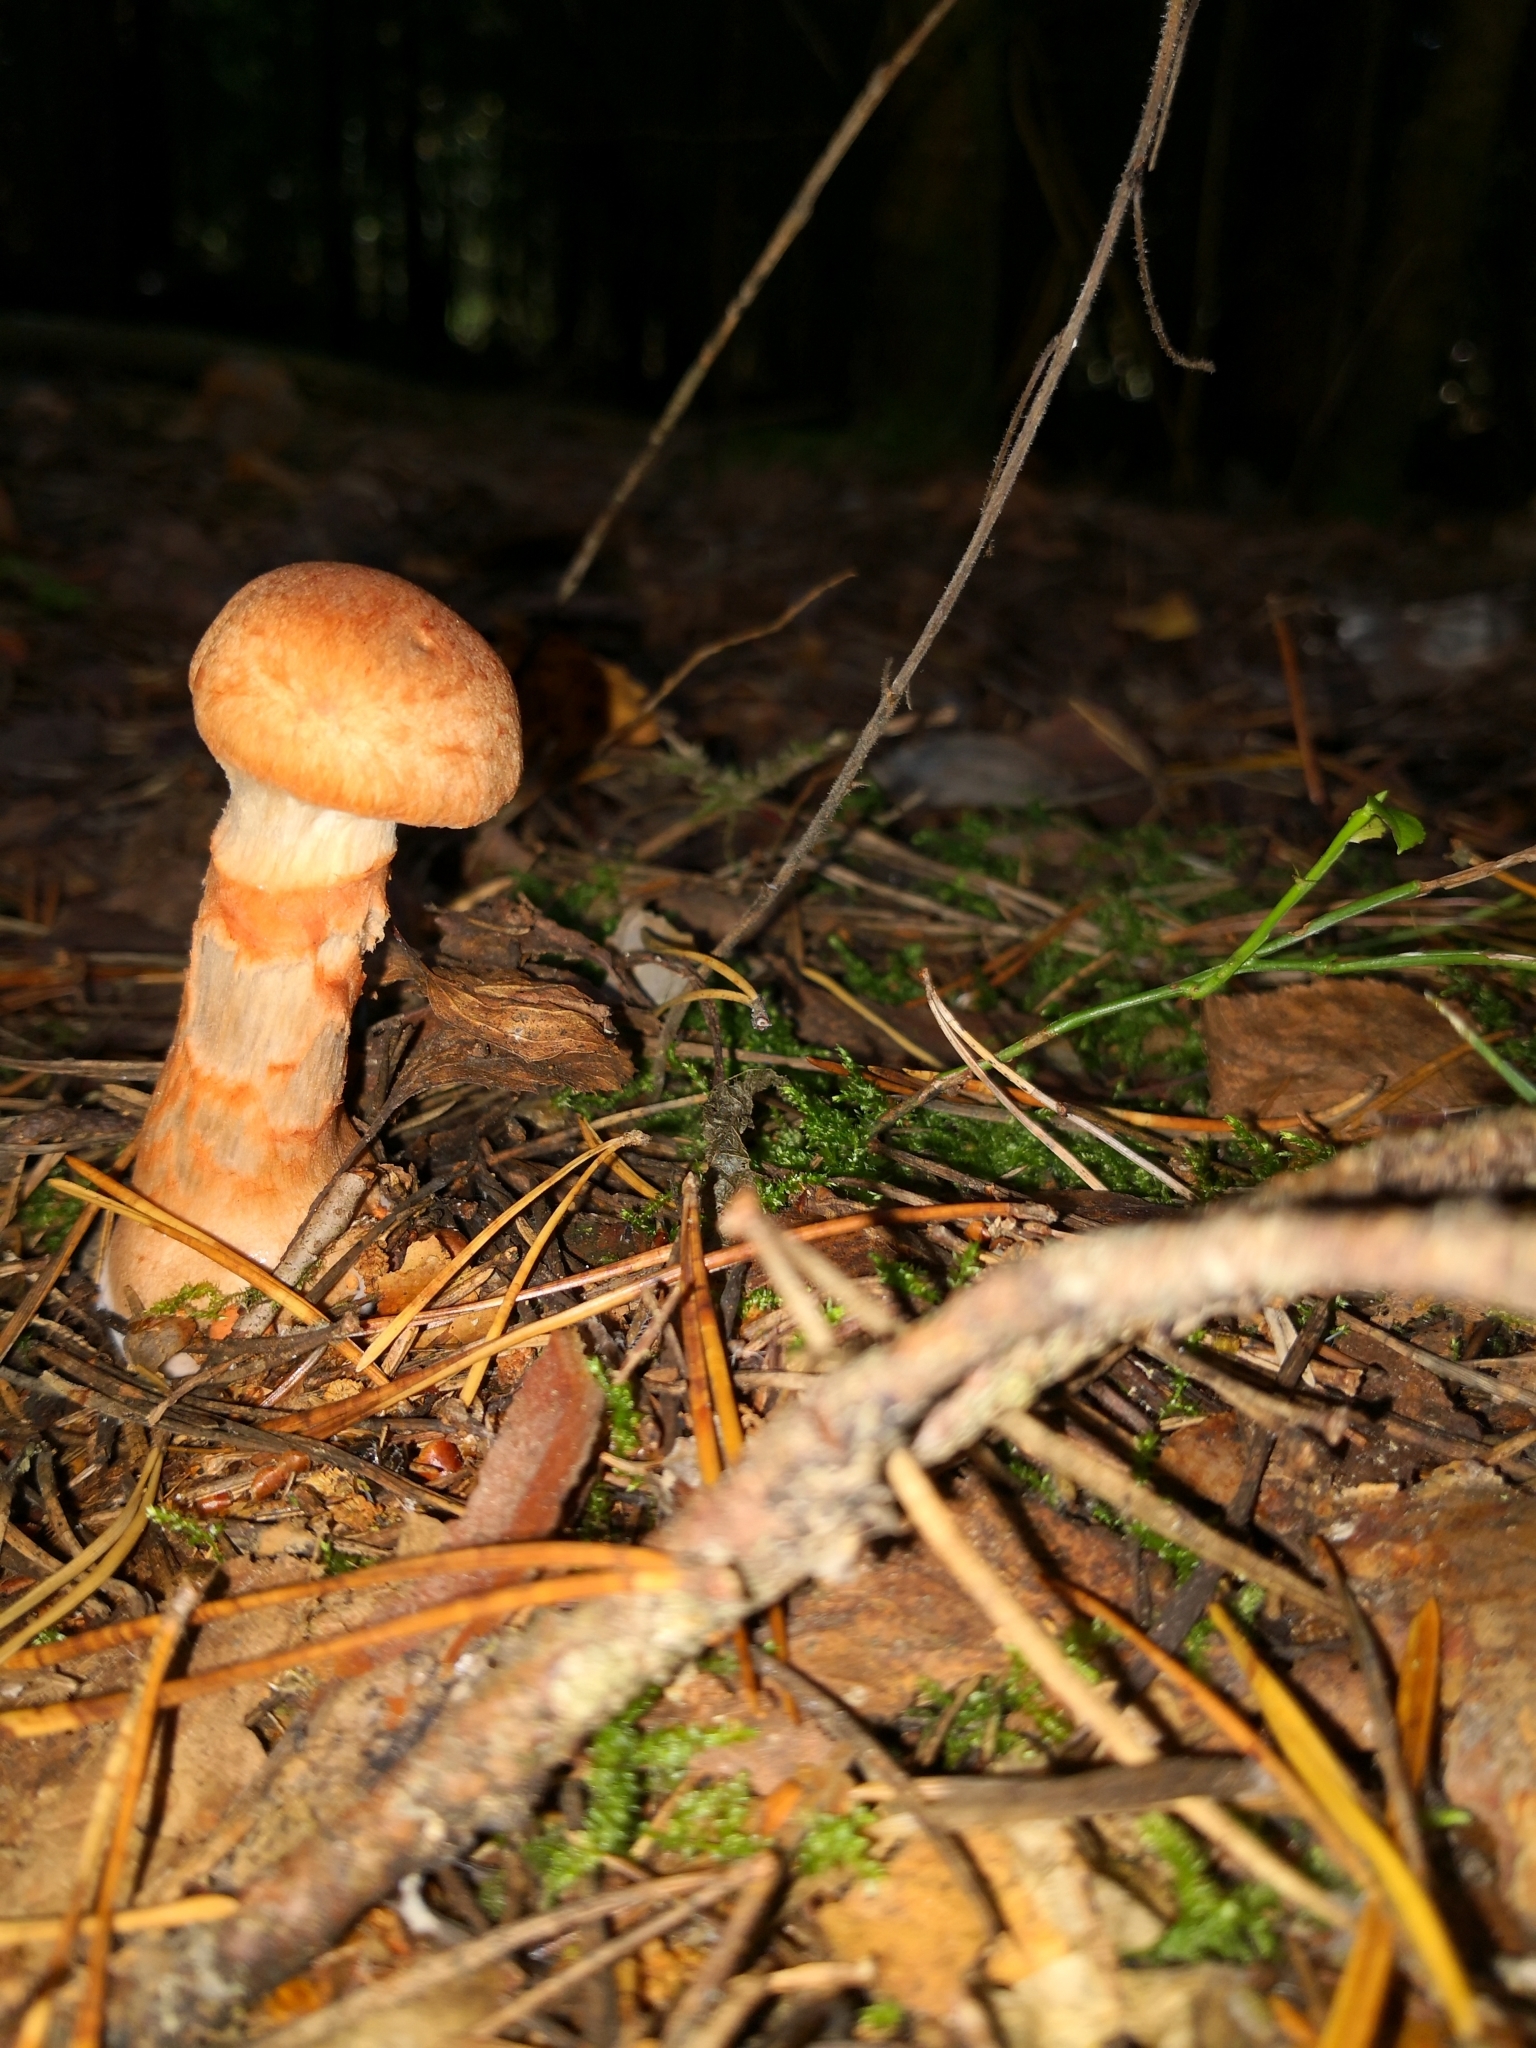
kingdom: Fungi
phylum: Basidiomycota
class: Agaricomycetes
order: Agaricales
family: Cortinariaceae
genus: Cortinarius
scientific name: Cortinarius armillatus
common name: Red banded webcap
